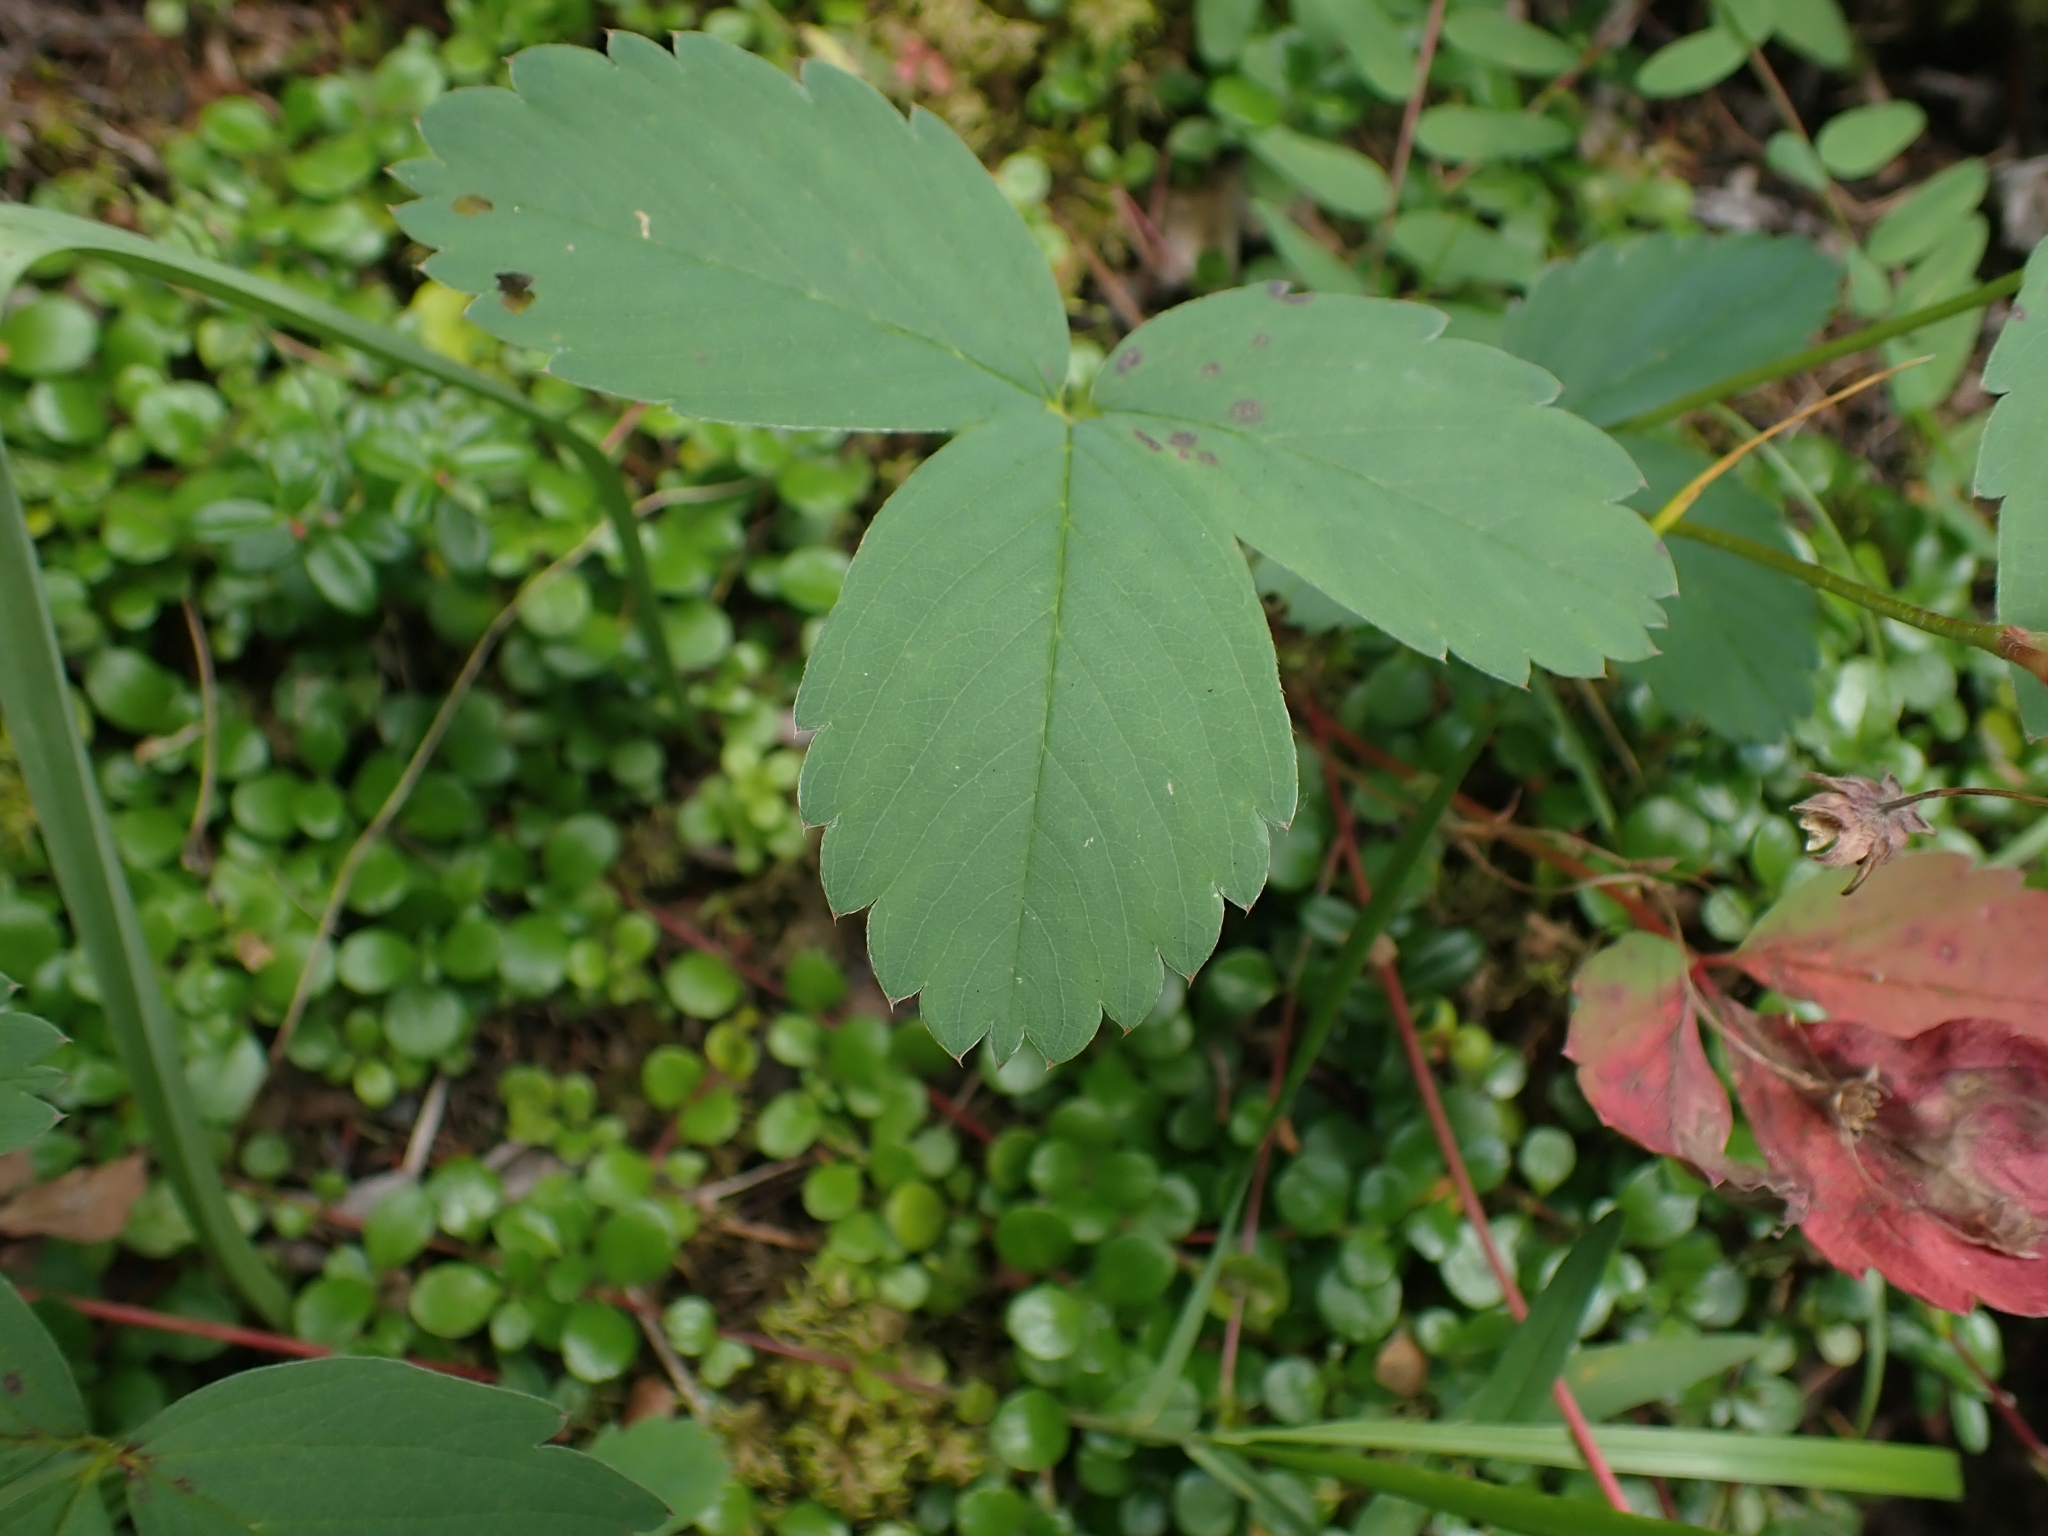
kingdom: Plantae
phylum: Tracheophyta
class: Magnoliopsida
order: Rosales
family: Rosaceae
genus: Fragaria
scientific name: Fragaria virginiana
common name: Thickleaved wild strawberry
